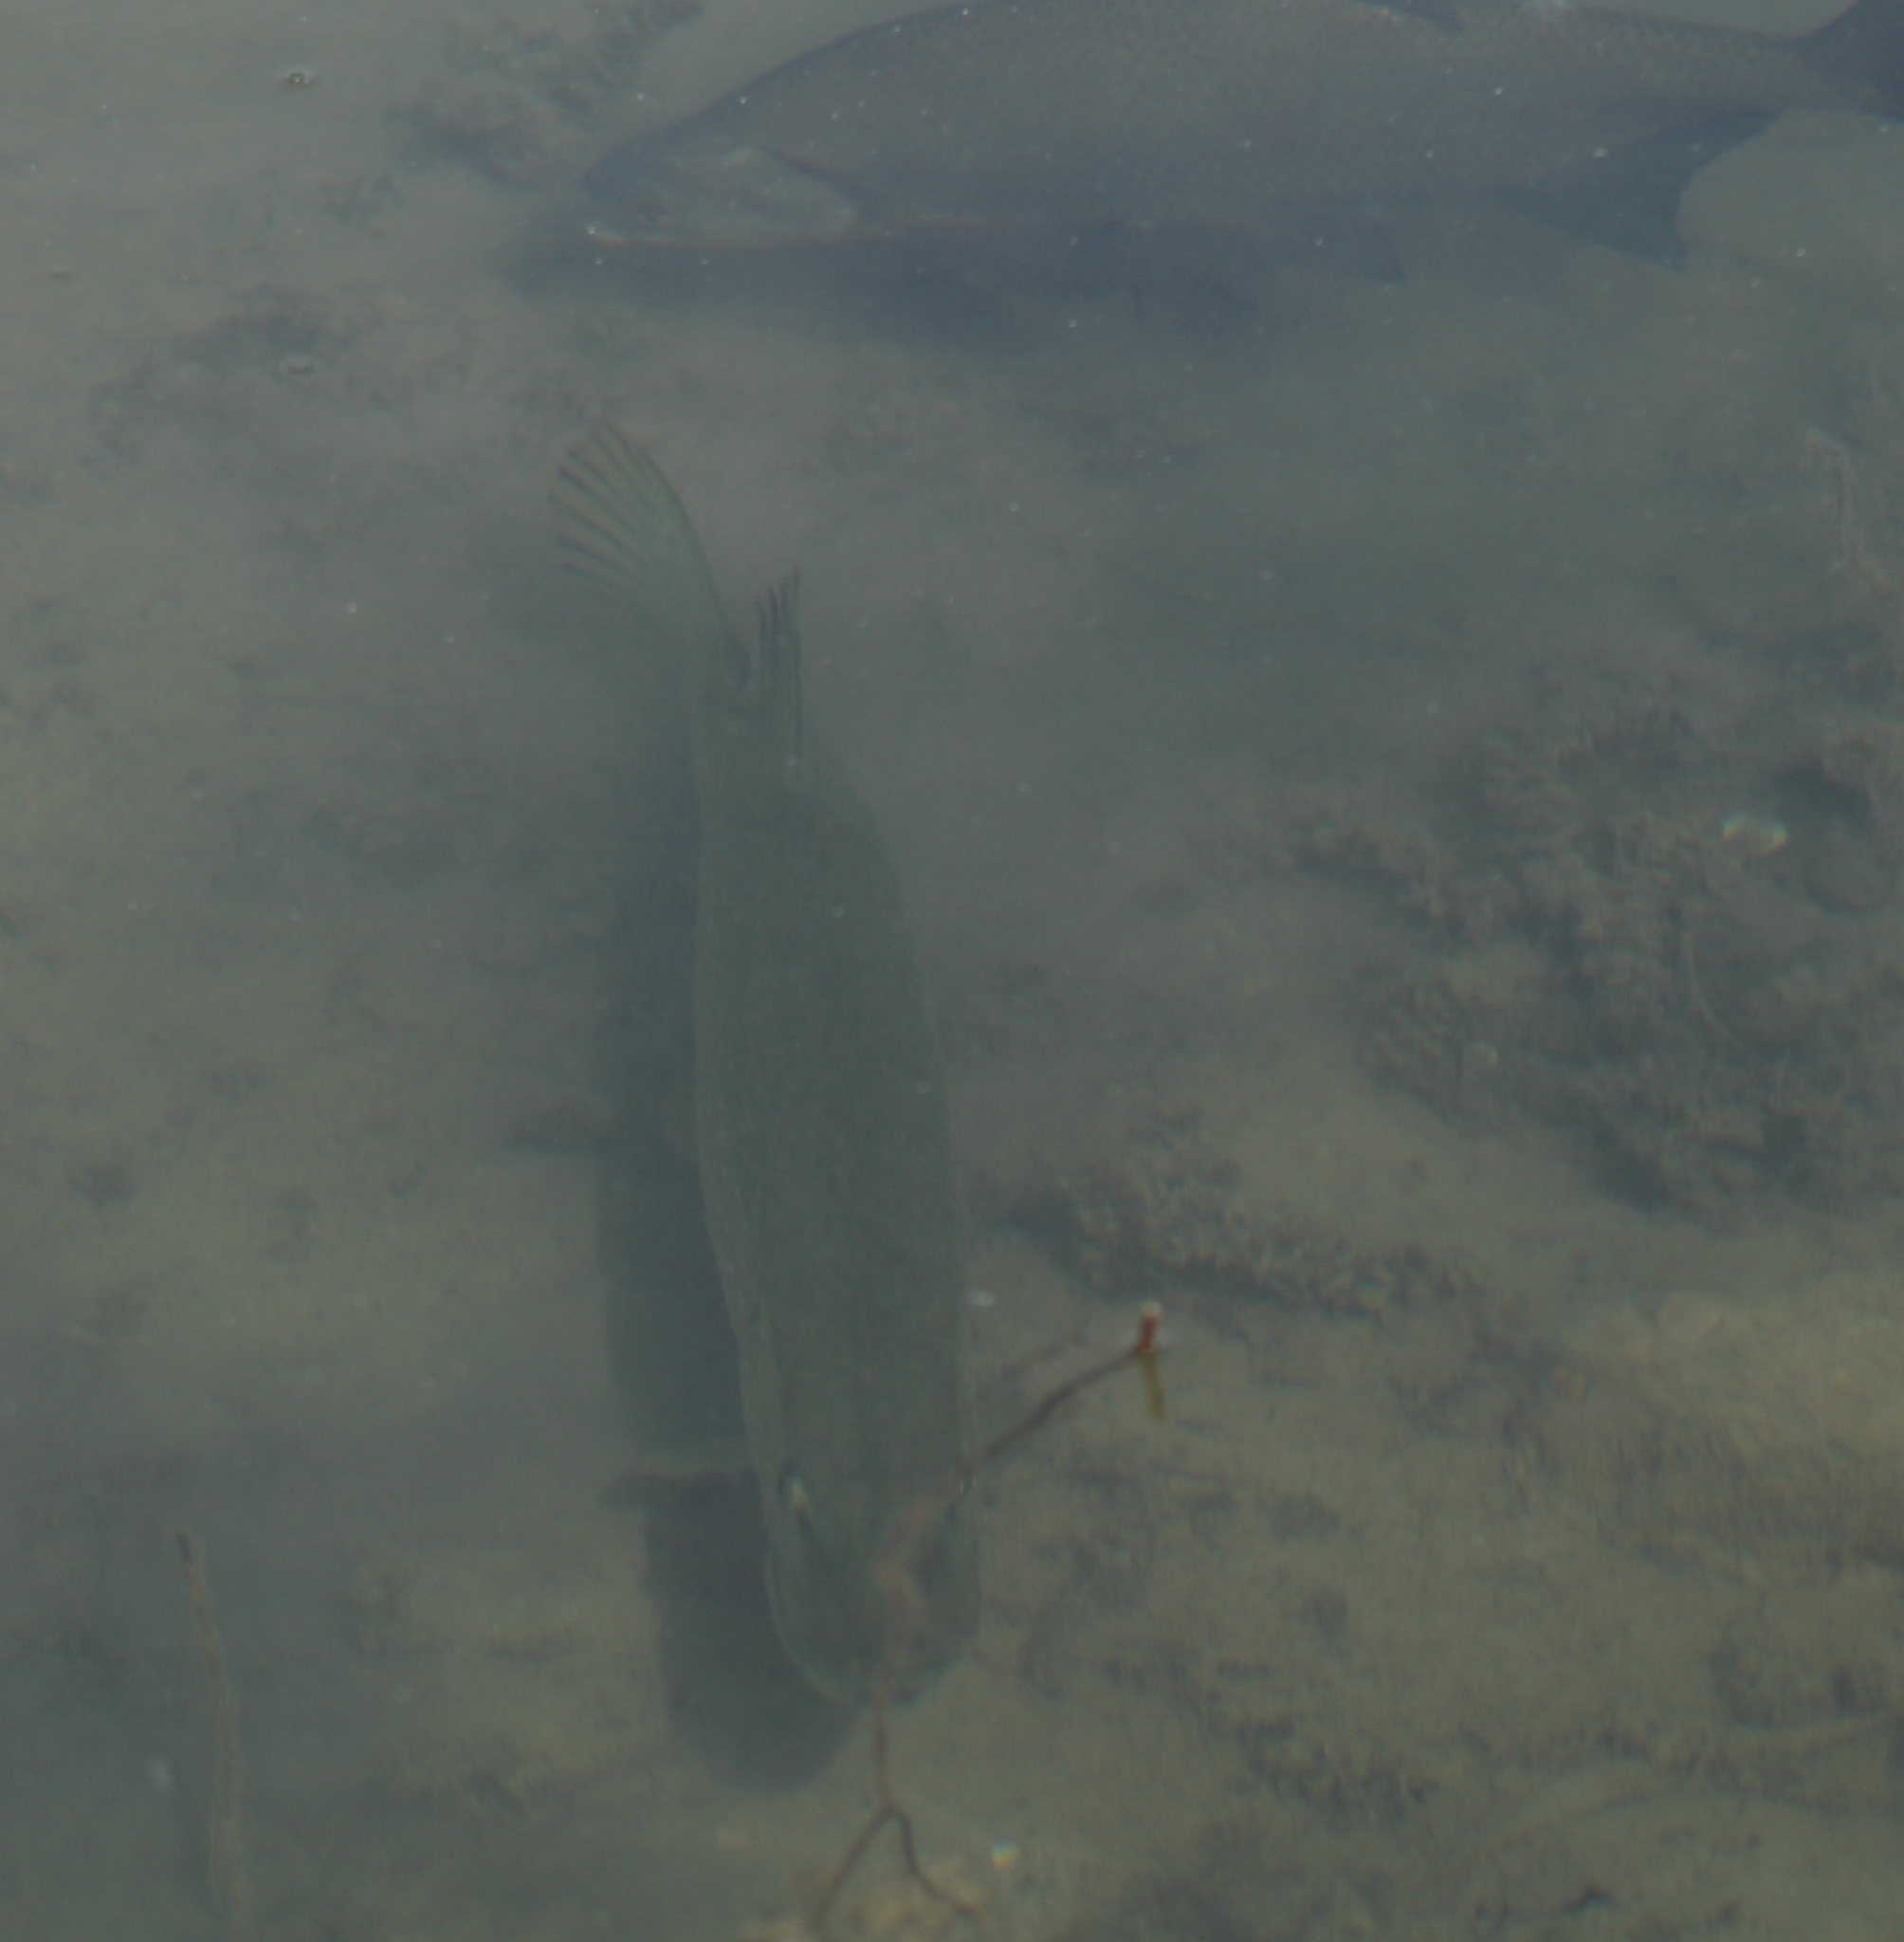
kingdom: Animalia
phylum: Chordata
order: Esociformes
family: Esocidae
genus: Esox
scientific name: Esox lucius
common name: Northern pike
